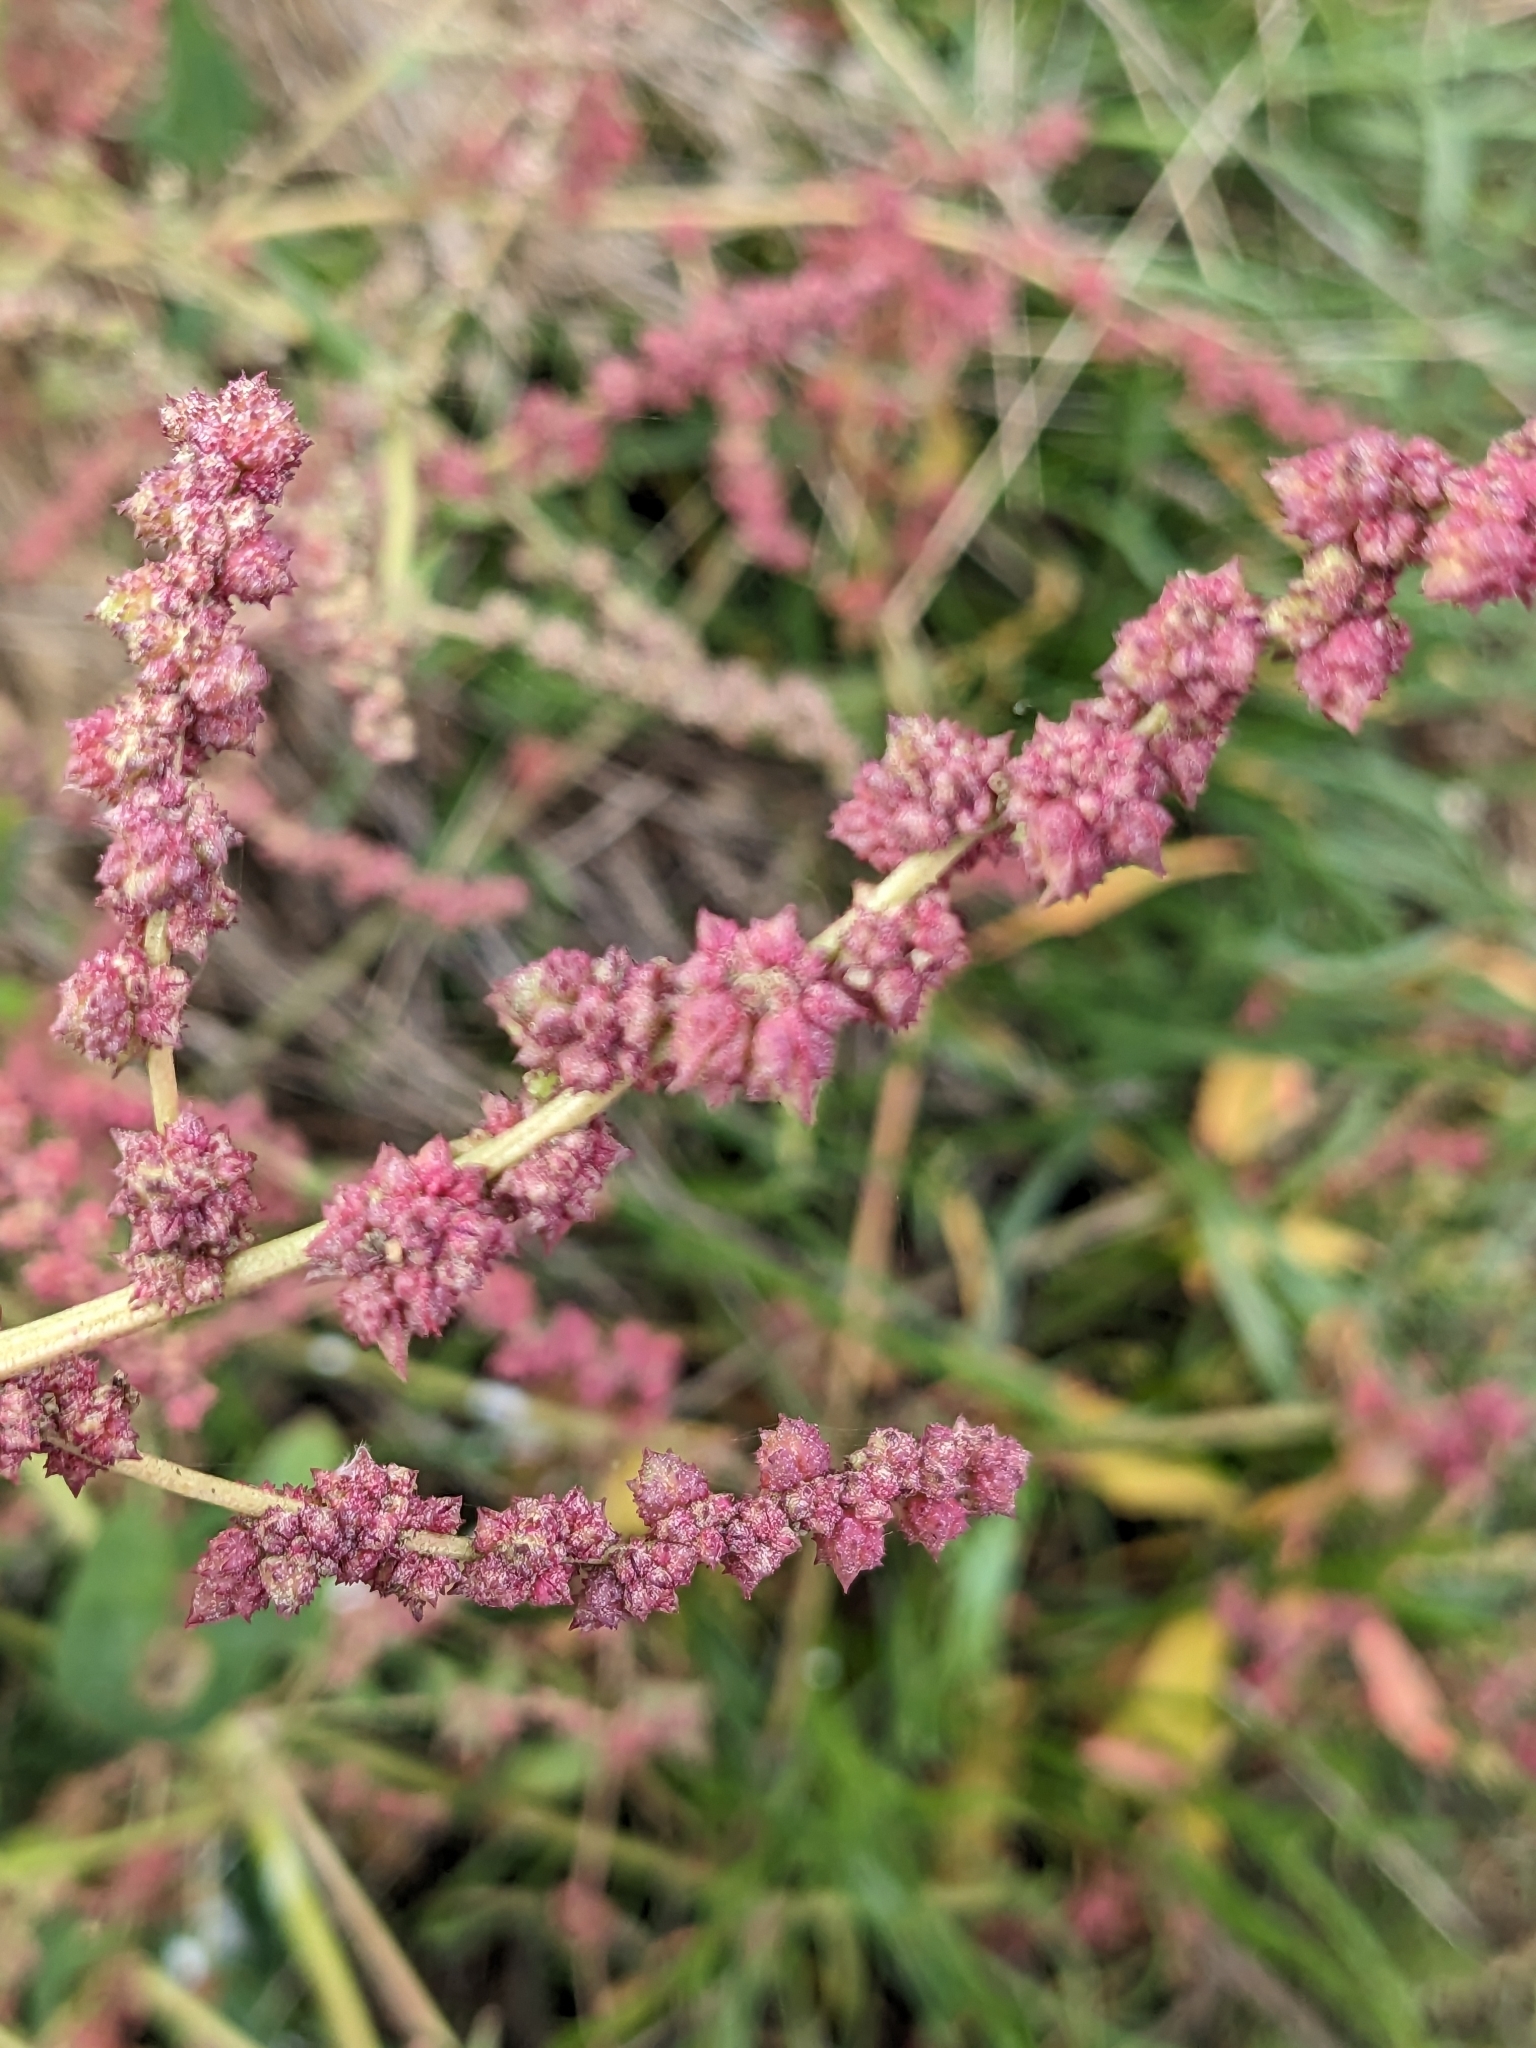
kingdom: Plantae
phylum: Tracheophyta
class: Magnoliopsida
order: Caryophyllales
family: Amaranthaceae
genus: Atriplex
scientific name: Atriplex prostrata
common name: Spear-leaved orache
